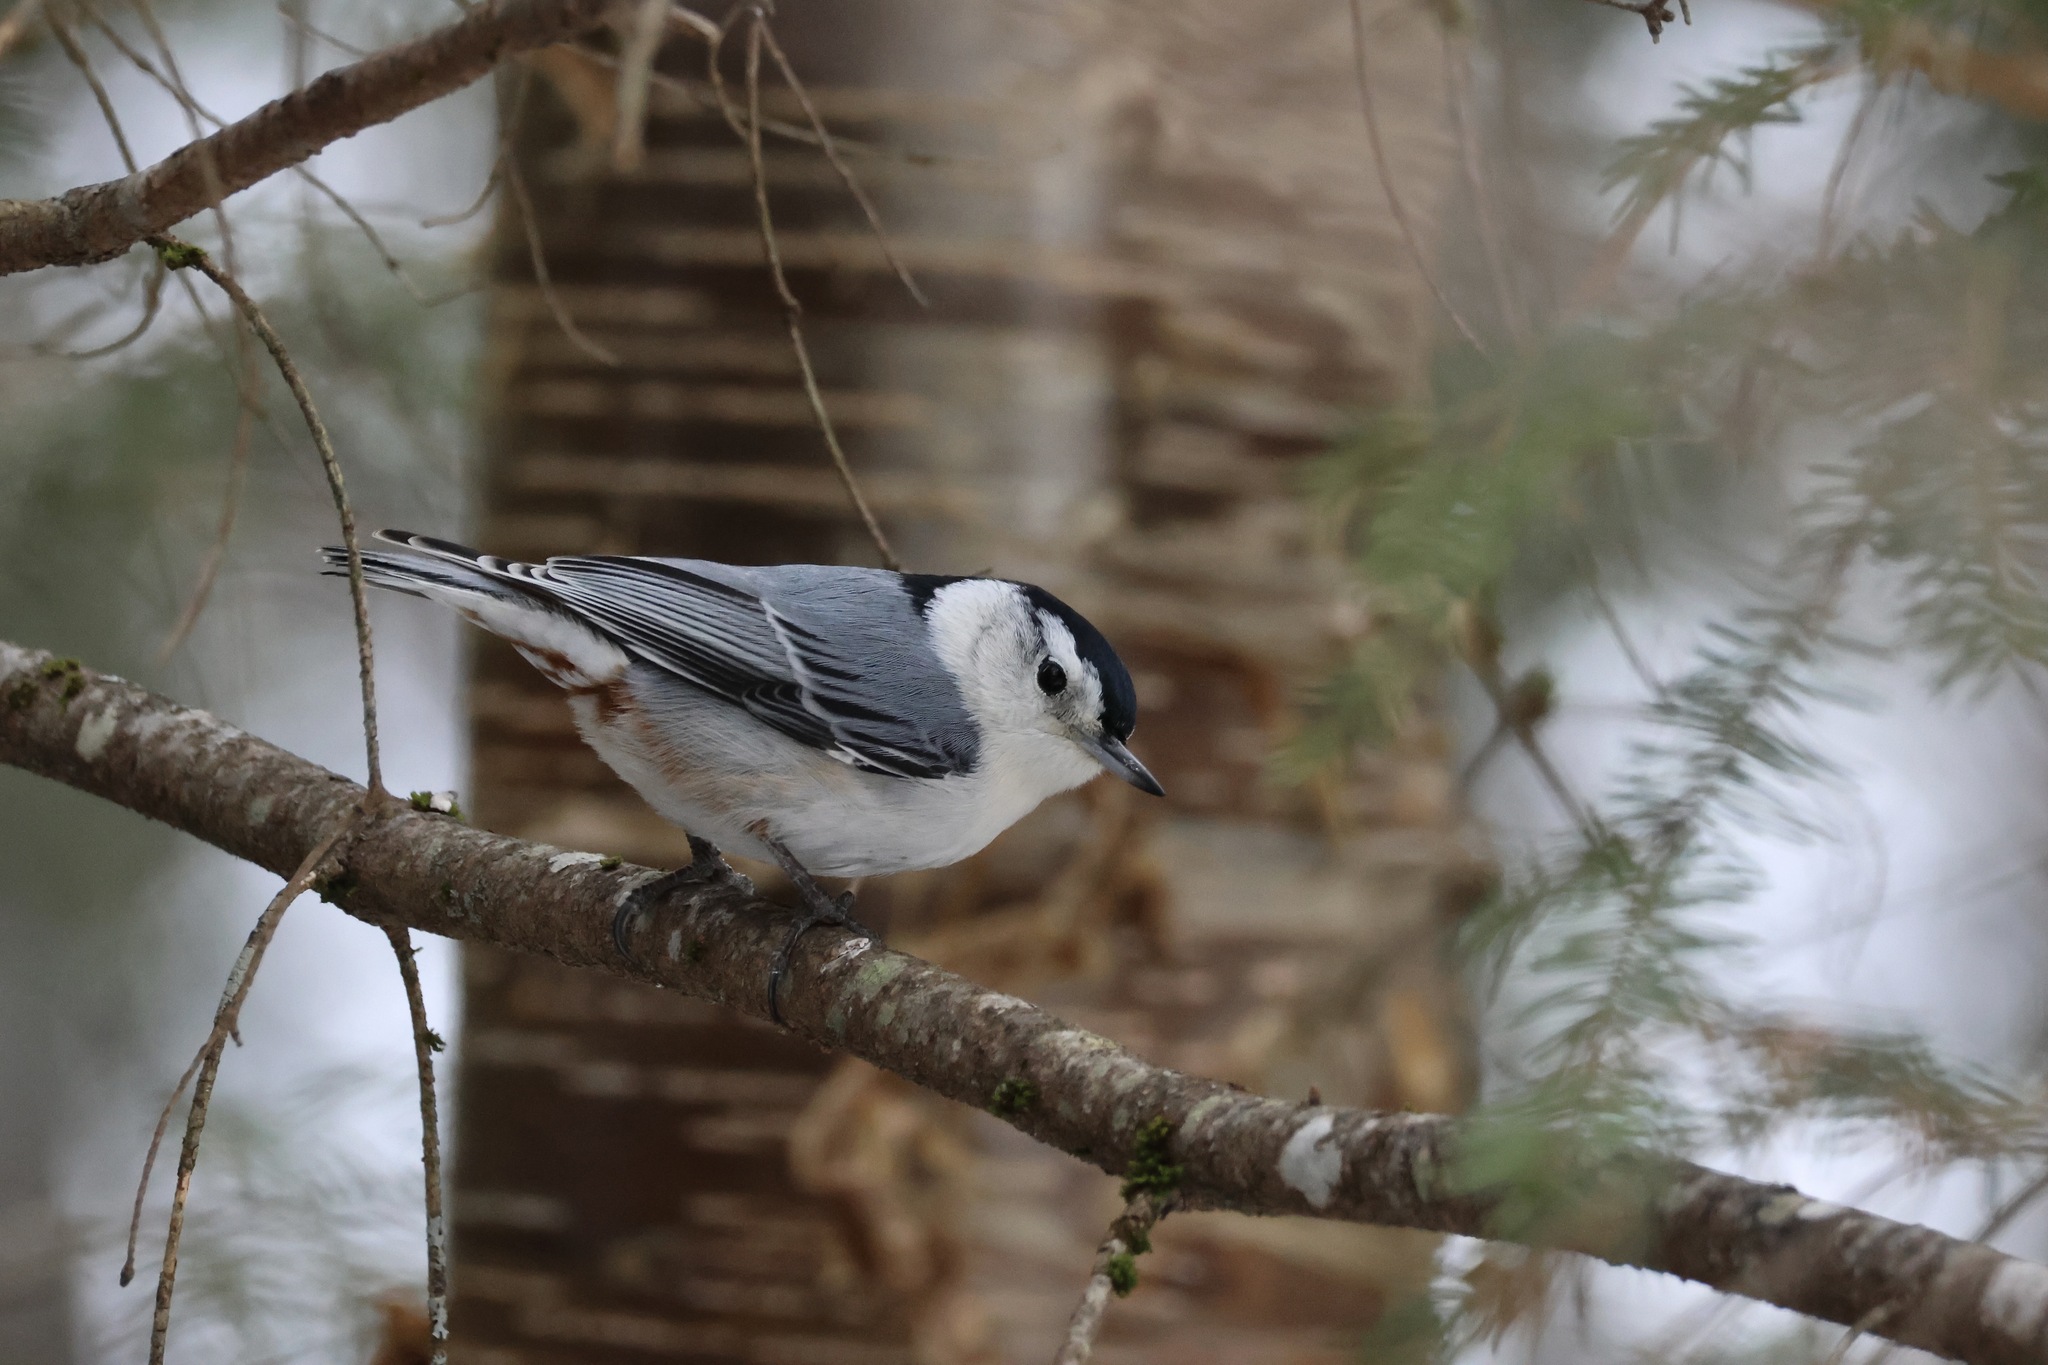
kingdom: Animalia
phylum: Chordata
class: Aves
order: Passeriformes
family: Sittidae
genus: Sitta
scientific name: Sitta carolinensis
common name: White-breasted nuthatch
